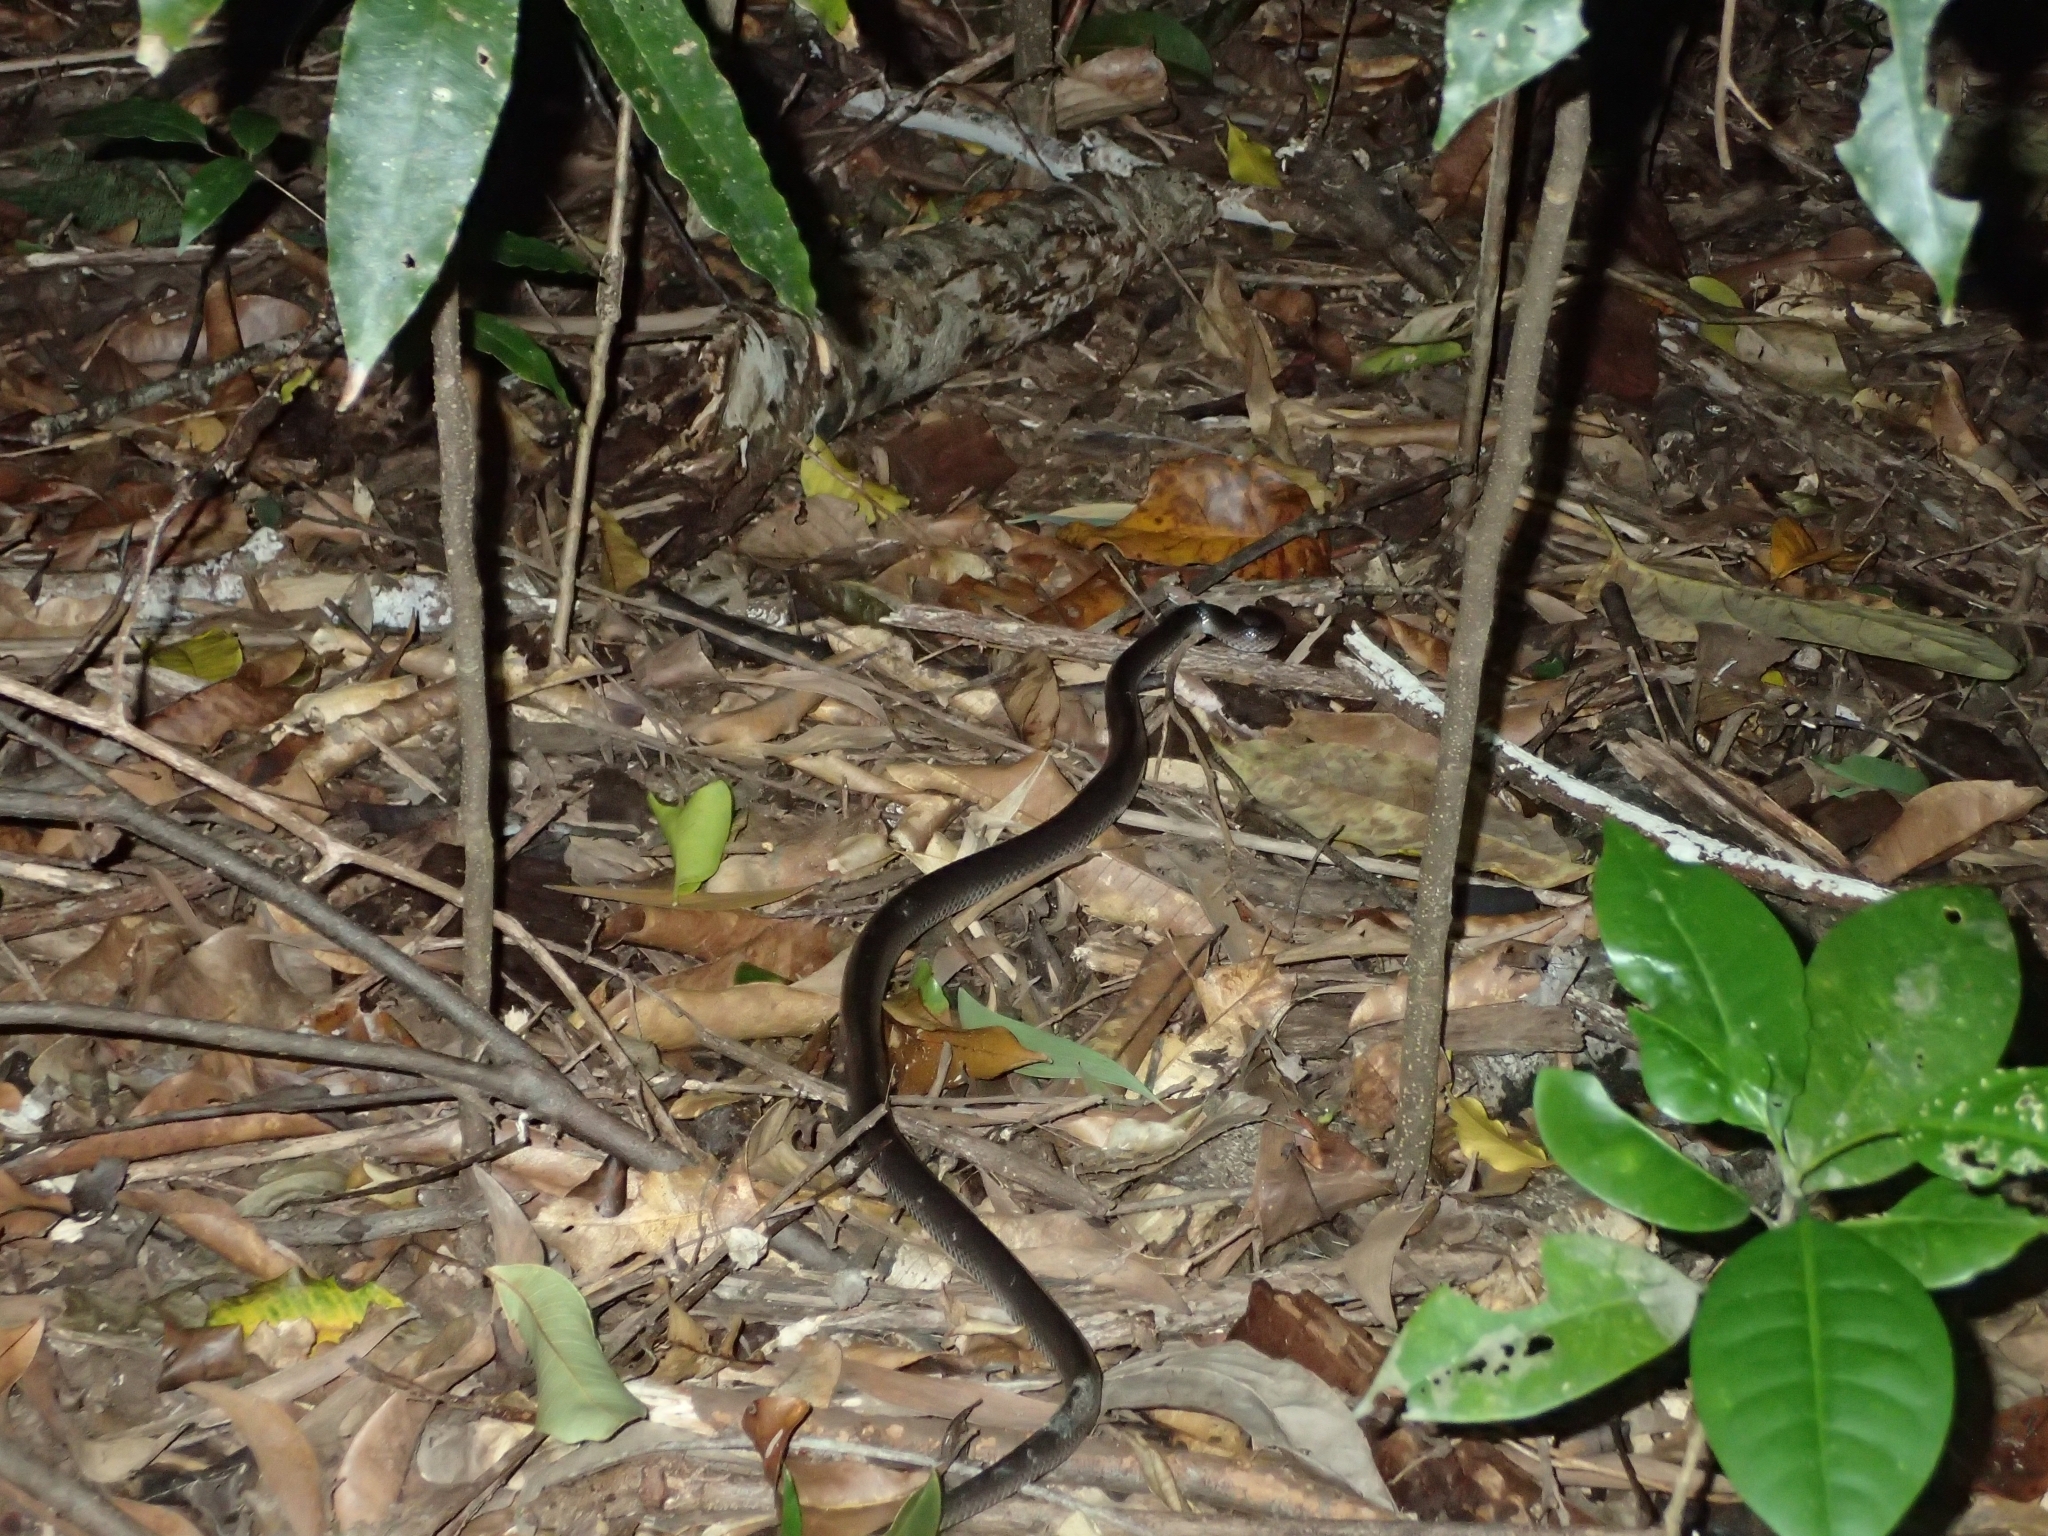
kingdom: Animalia
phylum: Chordata
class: Squamata
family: Colubridae
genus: Stegonotus
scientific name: Stegonotus australis
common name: Australian groundsnake
